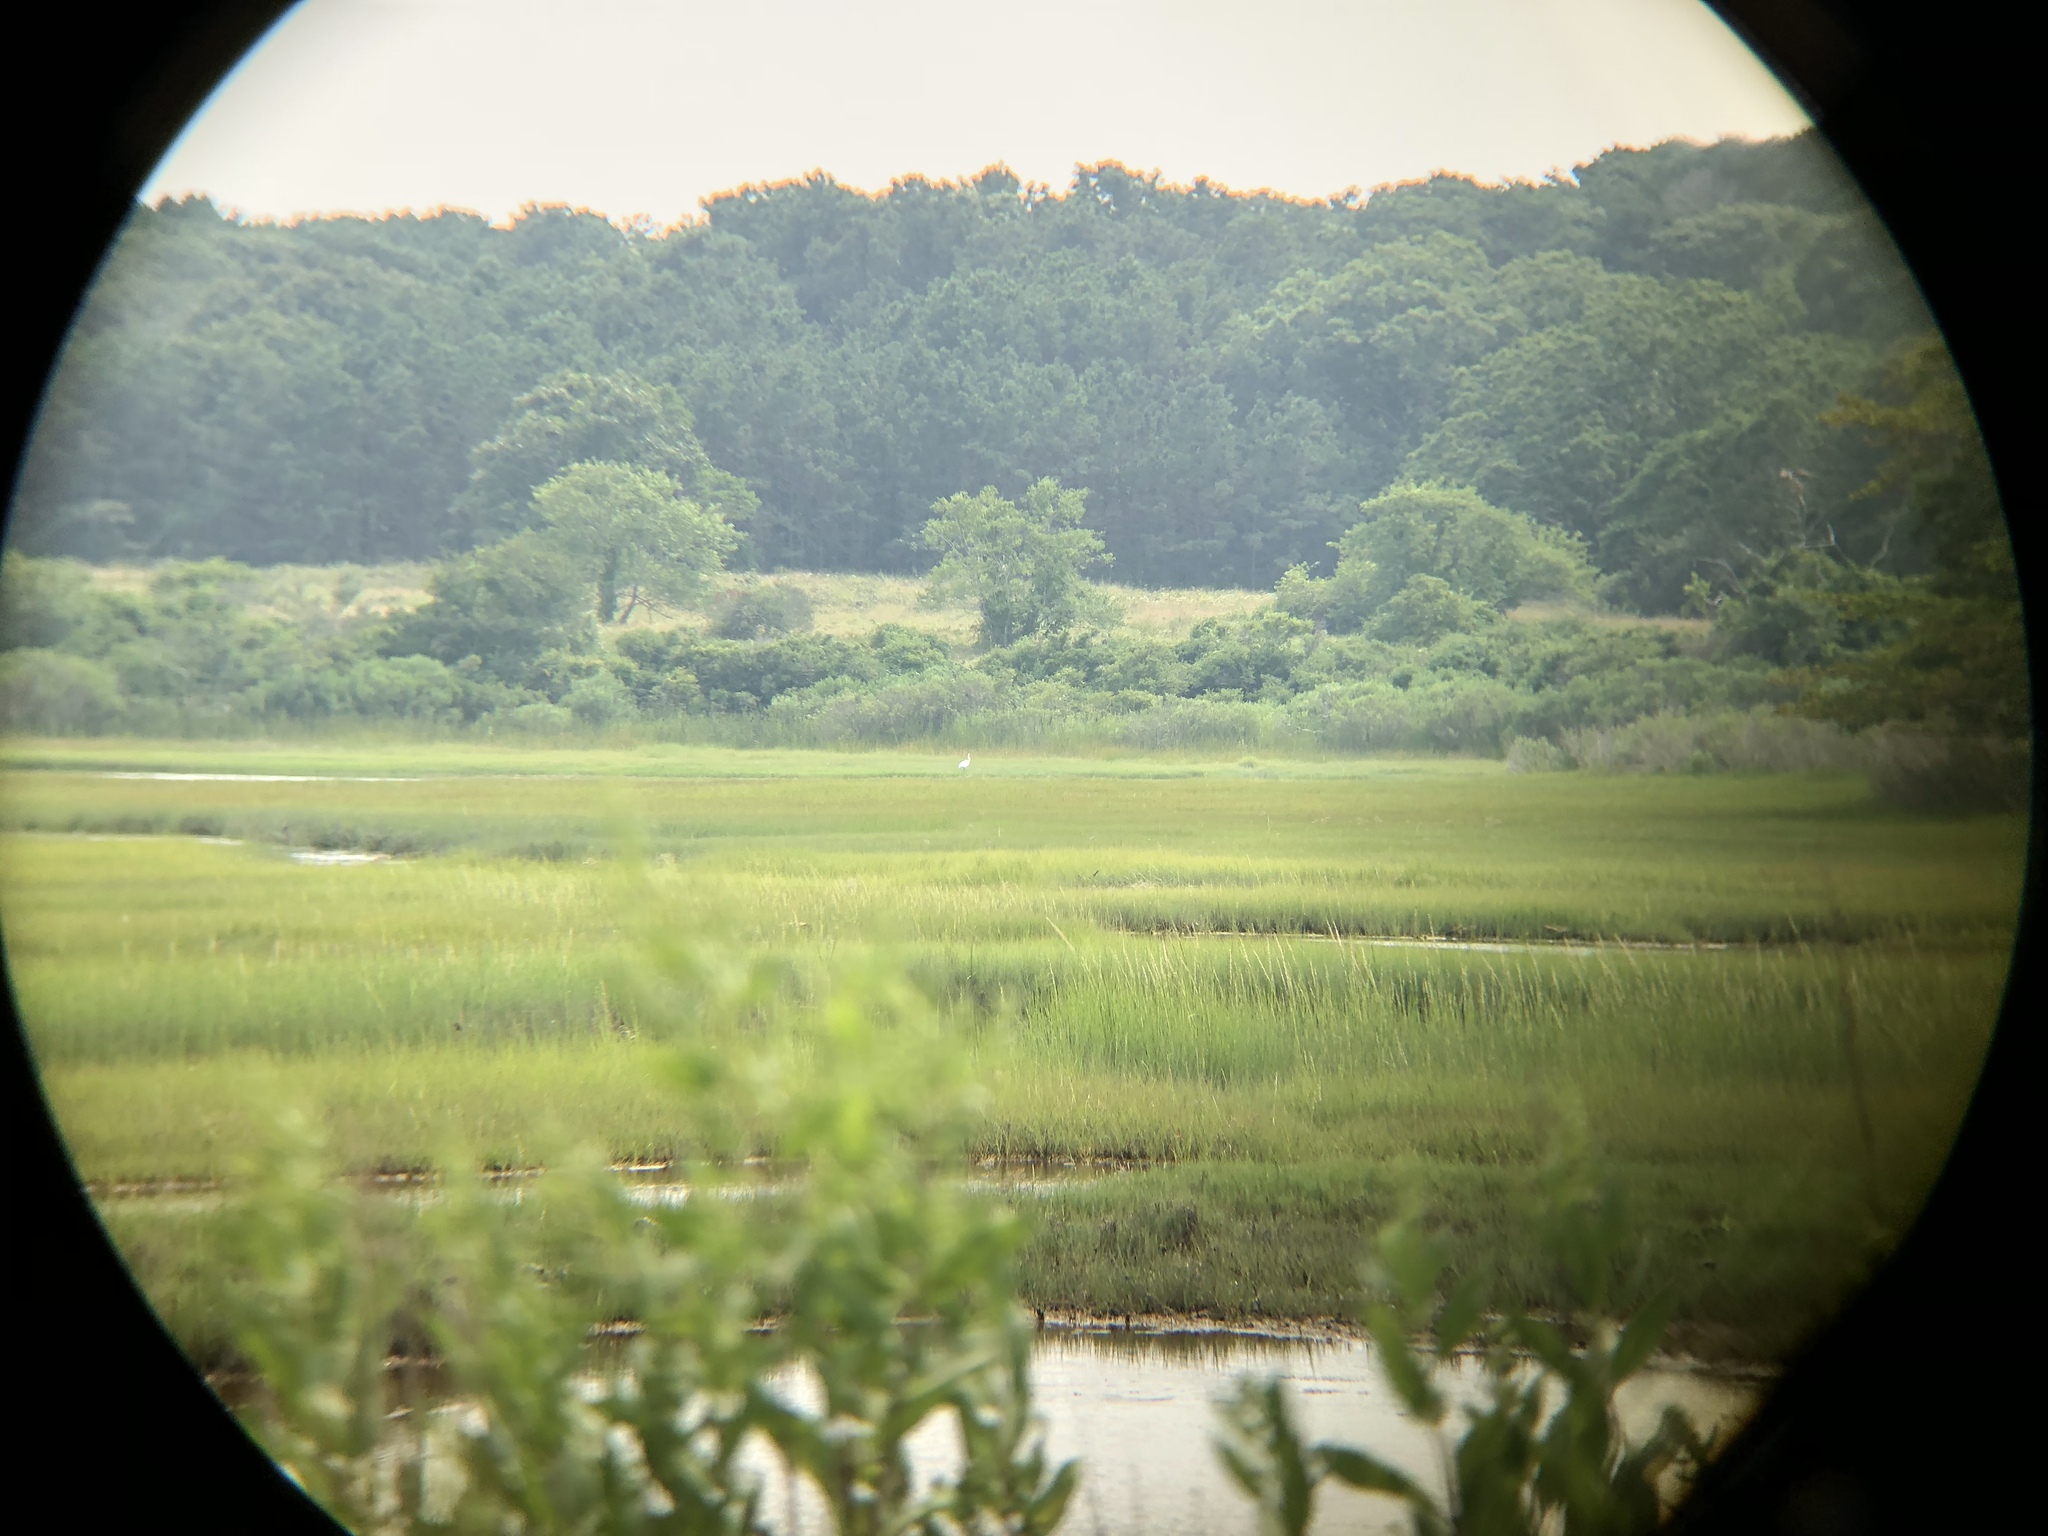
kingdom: Animalia
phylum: Chordata
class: Aves
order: Pelecaniformes
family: Ardeidae
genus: Ardea
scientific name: Ardea alba
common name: Great egret
